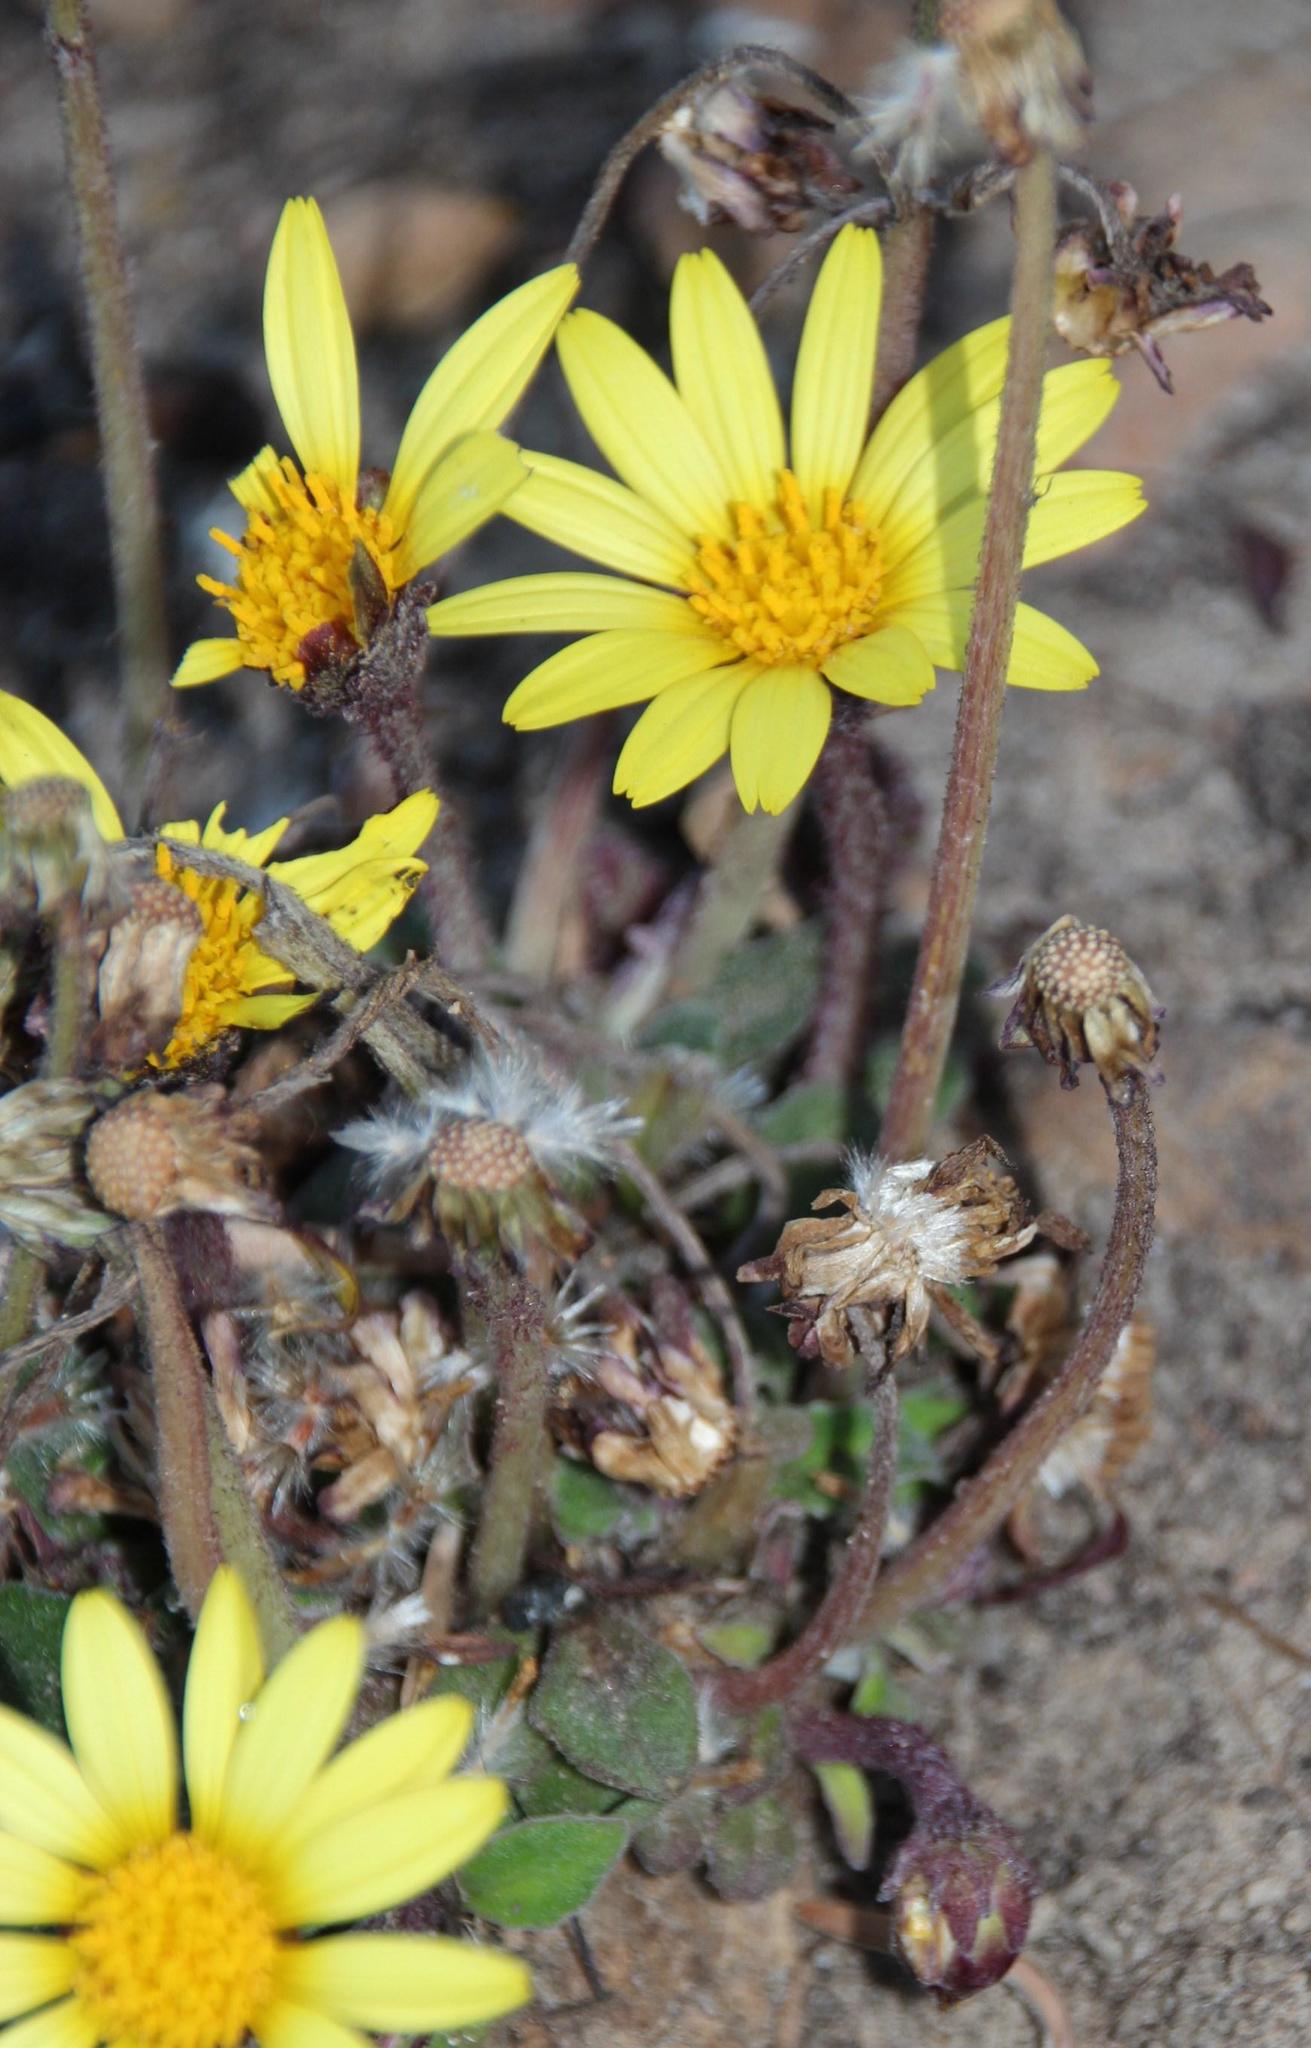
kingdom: Plantae
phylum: Tracheophyta
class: Magnoliopsida
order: Asterales
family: Asteraceae
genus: Haplocarpha
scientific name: Haplocarpha lanata
